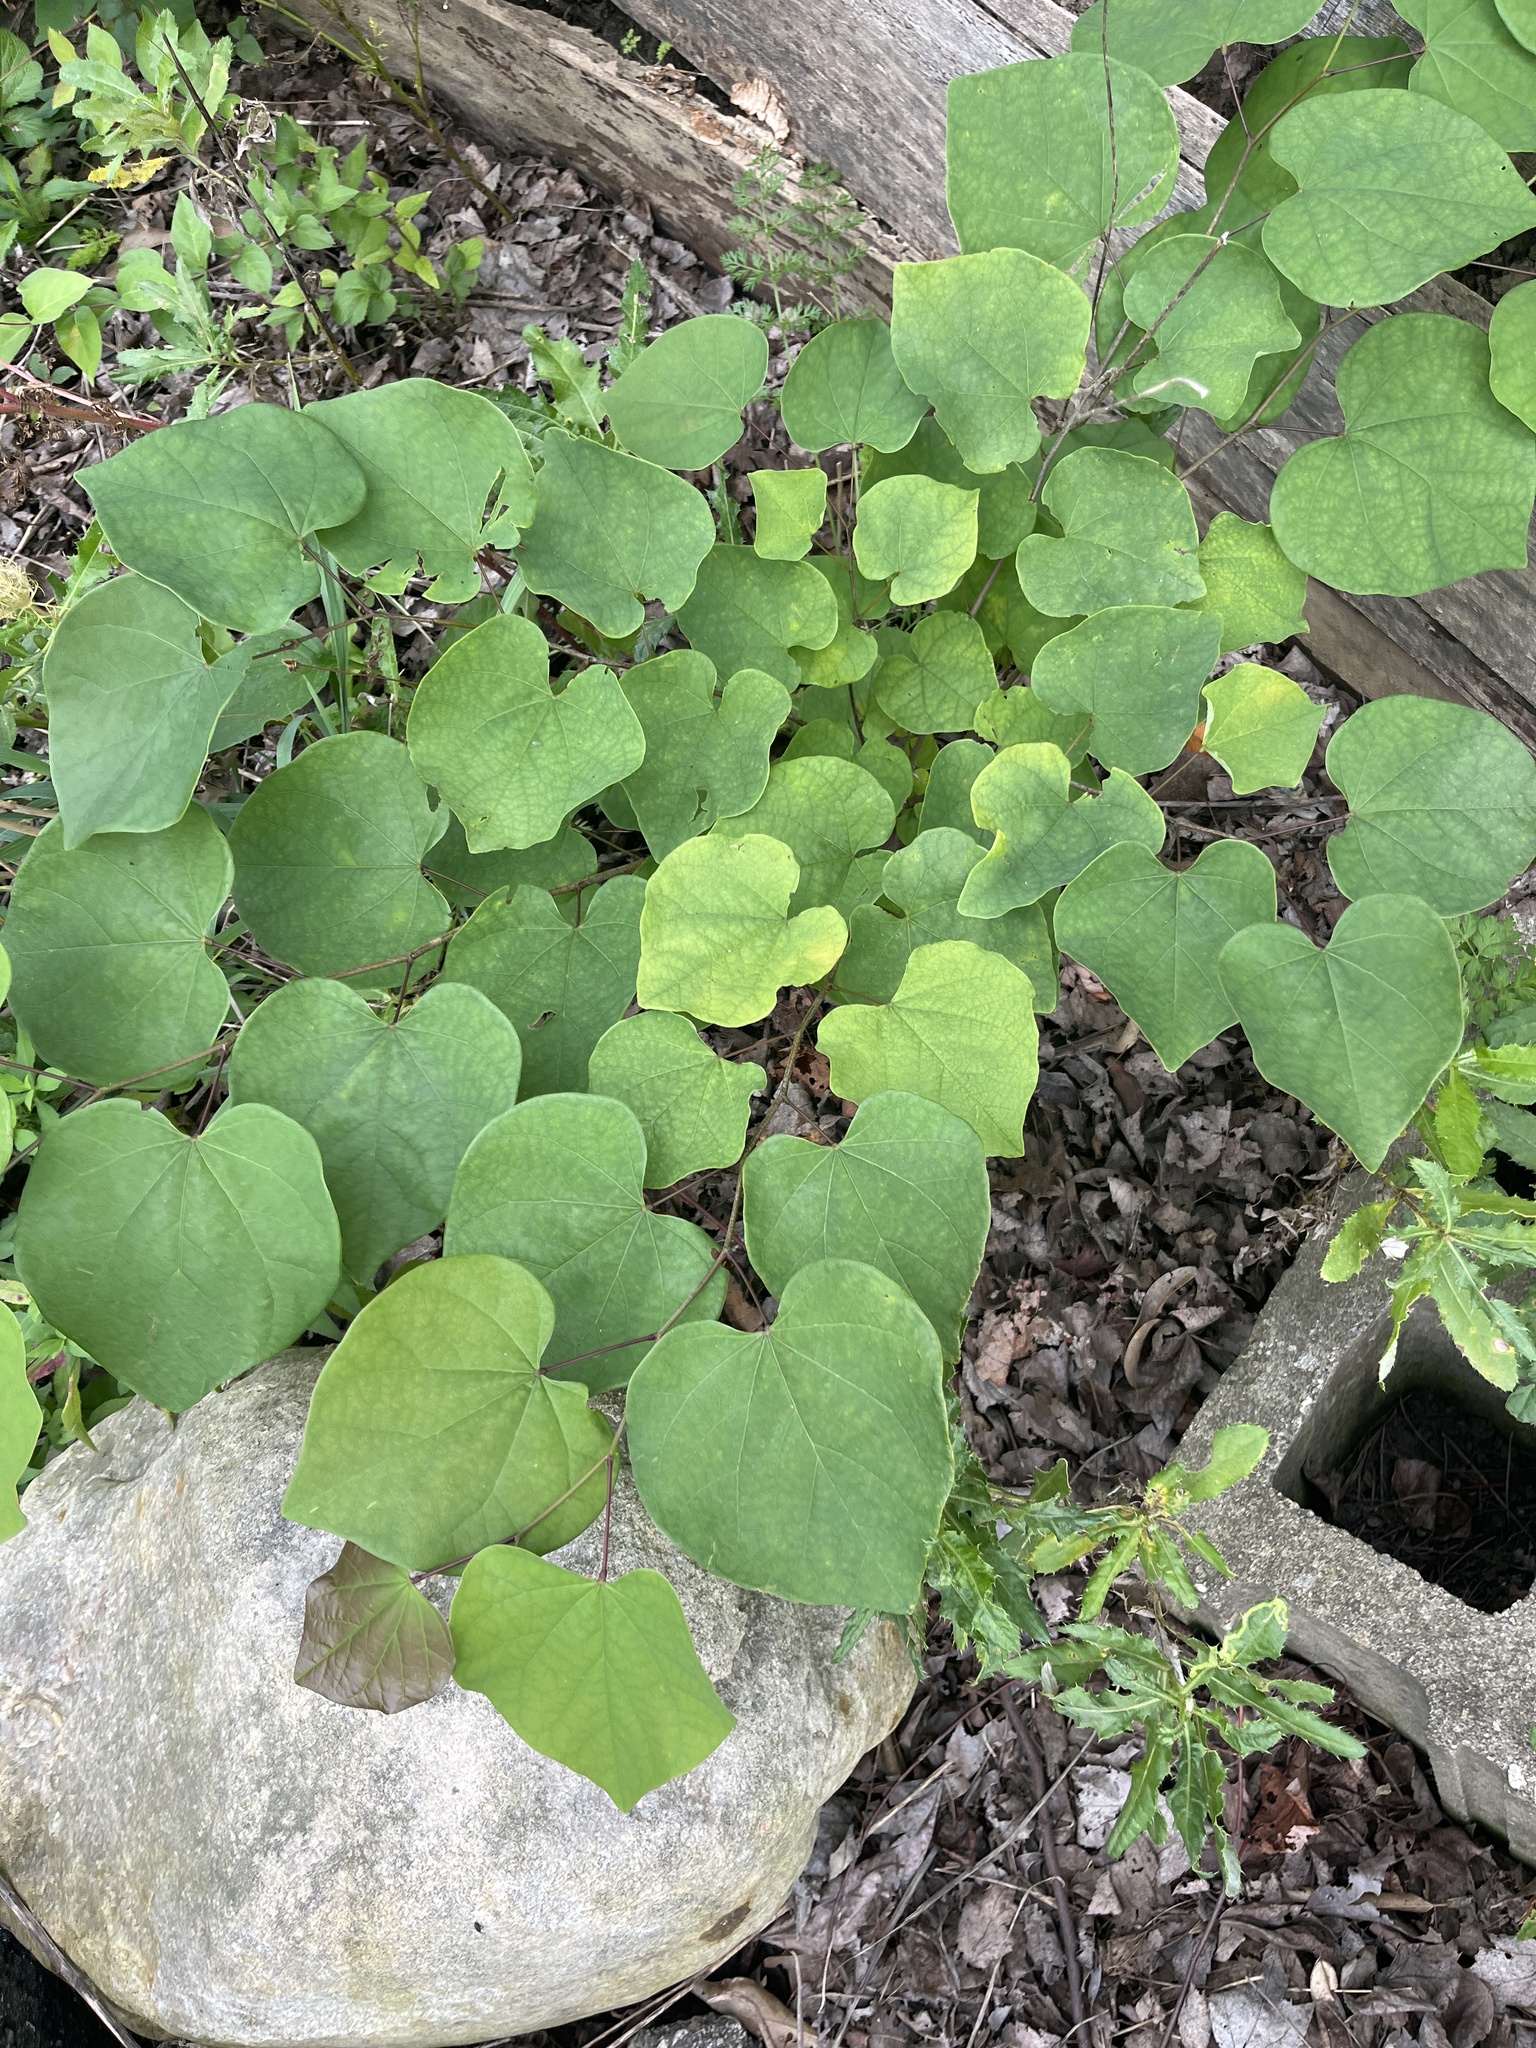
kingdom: Plantae
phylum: Tracheophyta
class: Magnoliopsida
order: Fabales
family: Fabaceae
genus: Cercis
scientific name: Cercis canadensis
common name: Eastern redbud
